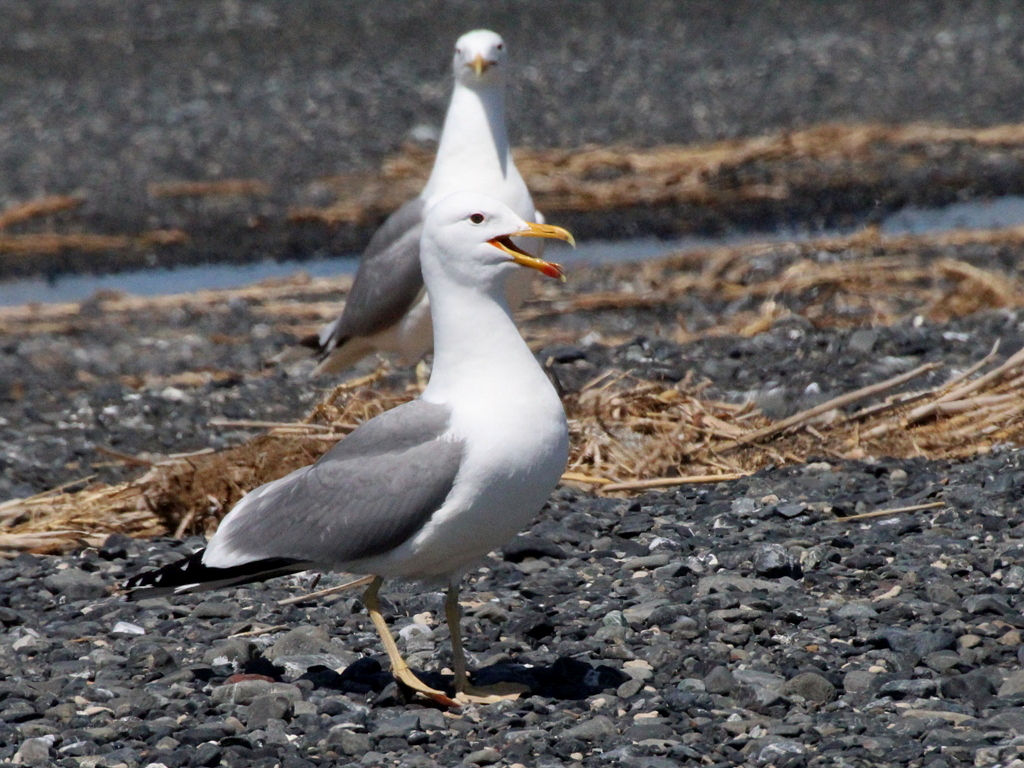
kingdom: Animalia
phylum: Chordata
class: Aves
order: Charadriiformes
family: Laridae
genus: Larus
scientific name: Larus cachinnans
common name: Caspian gull
